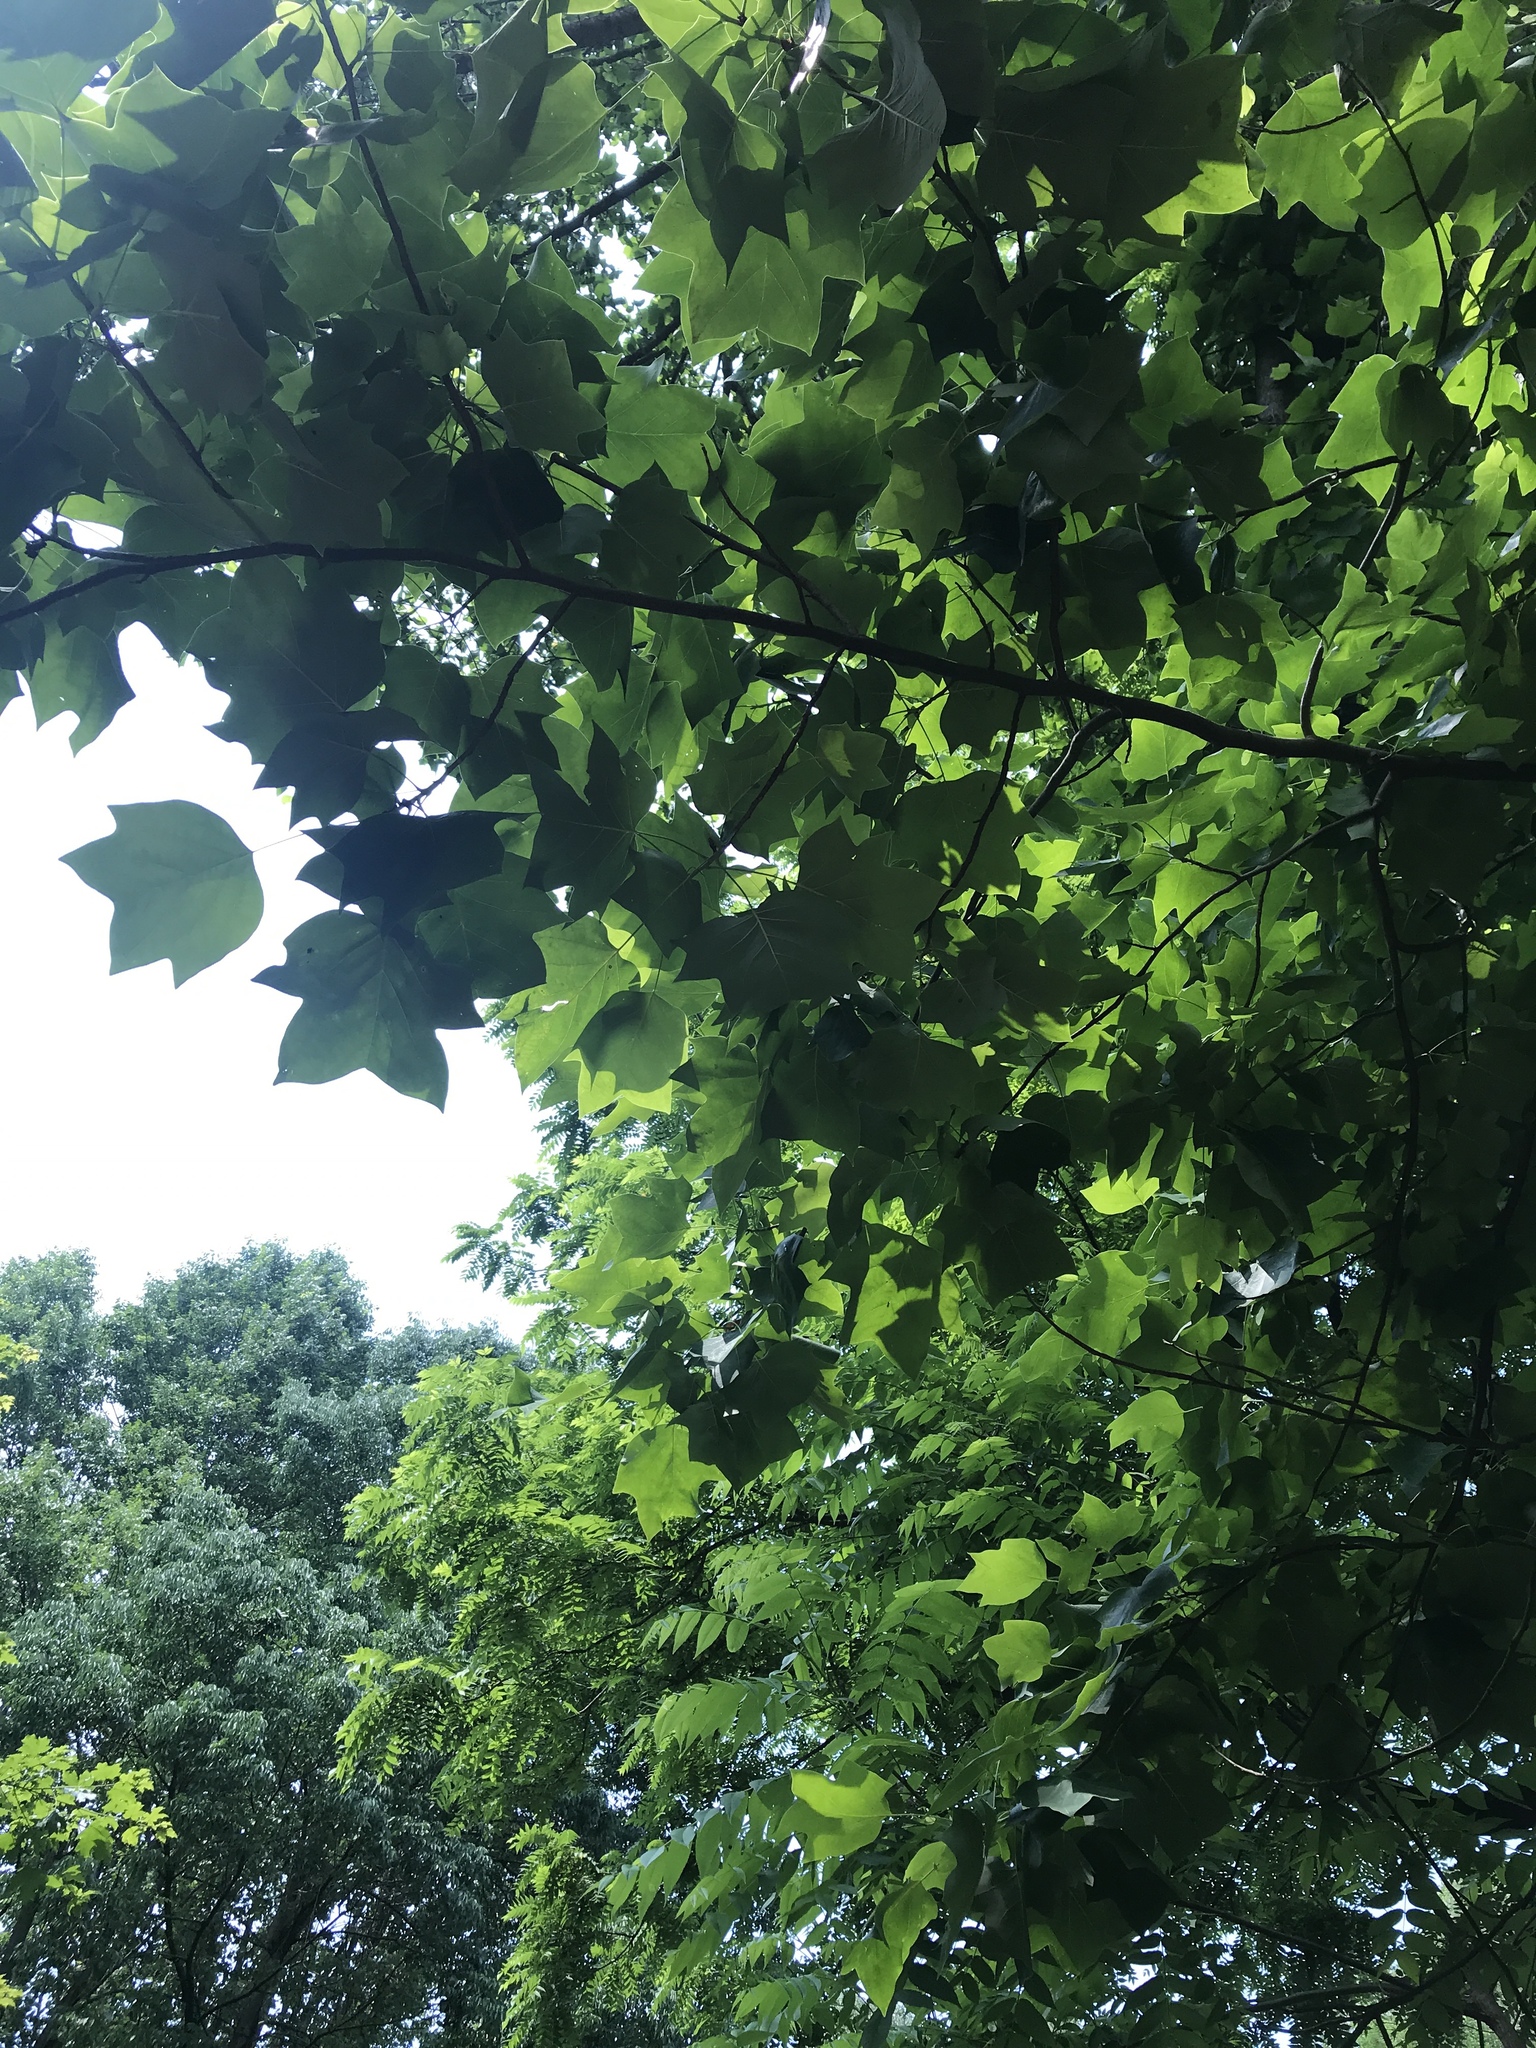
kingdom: Plantae
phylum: Tracheophyta
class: Magnoliopsida
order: Magnoliales
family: Magnoliaceae
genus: Liriodendron
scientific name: Liriodendron tulipifera
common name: Tulip tree
